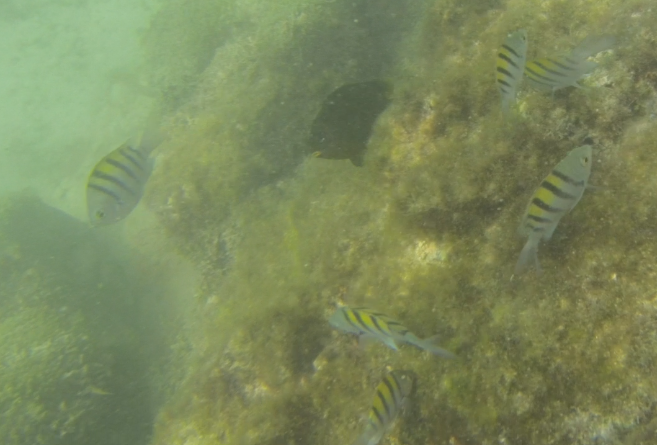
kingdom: Animalia
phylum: Chordata
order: Perciformes
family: Pomacentridae
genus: Abudefduf
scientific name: Abudefduf troschelii
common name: Panamic sergeant major
